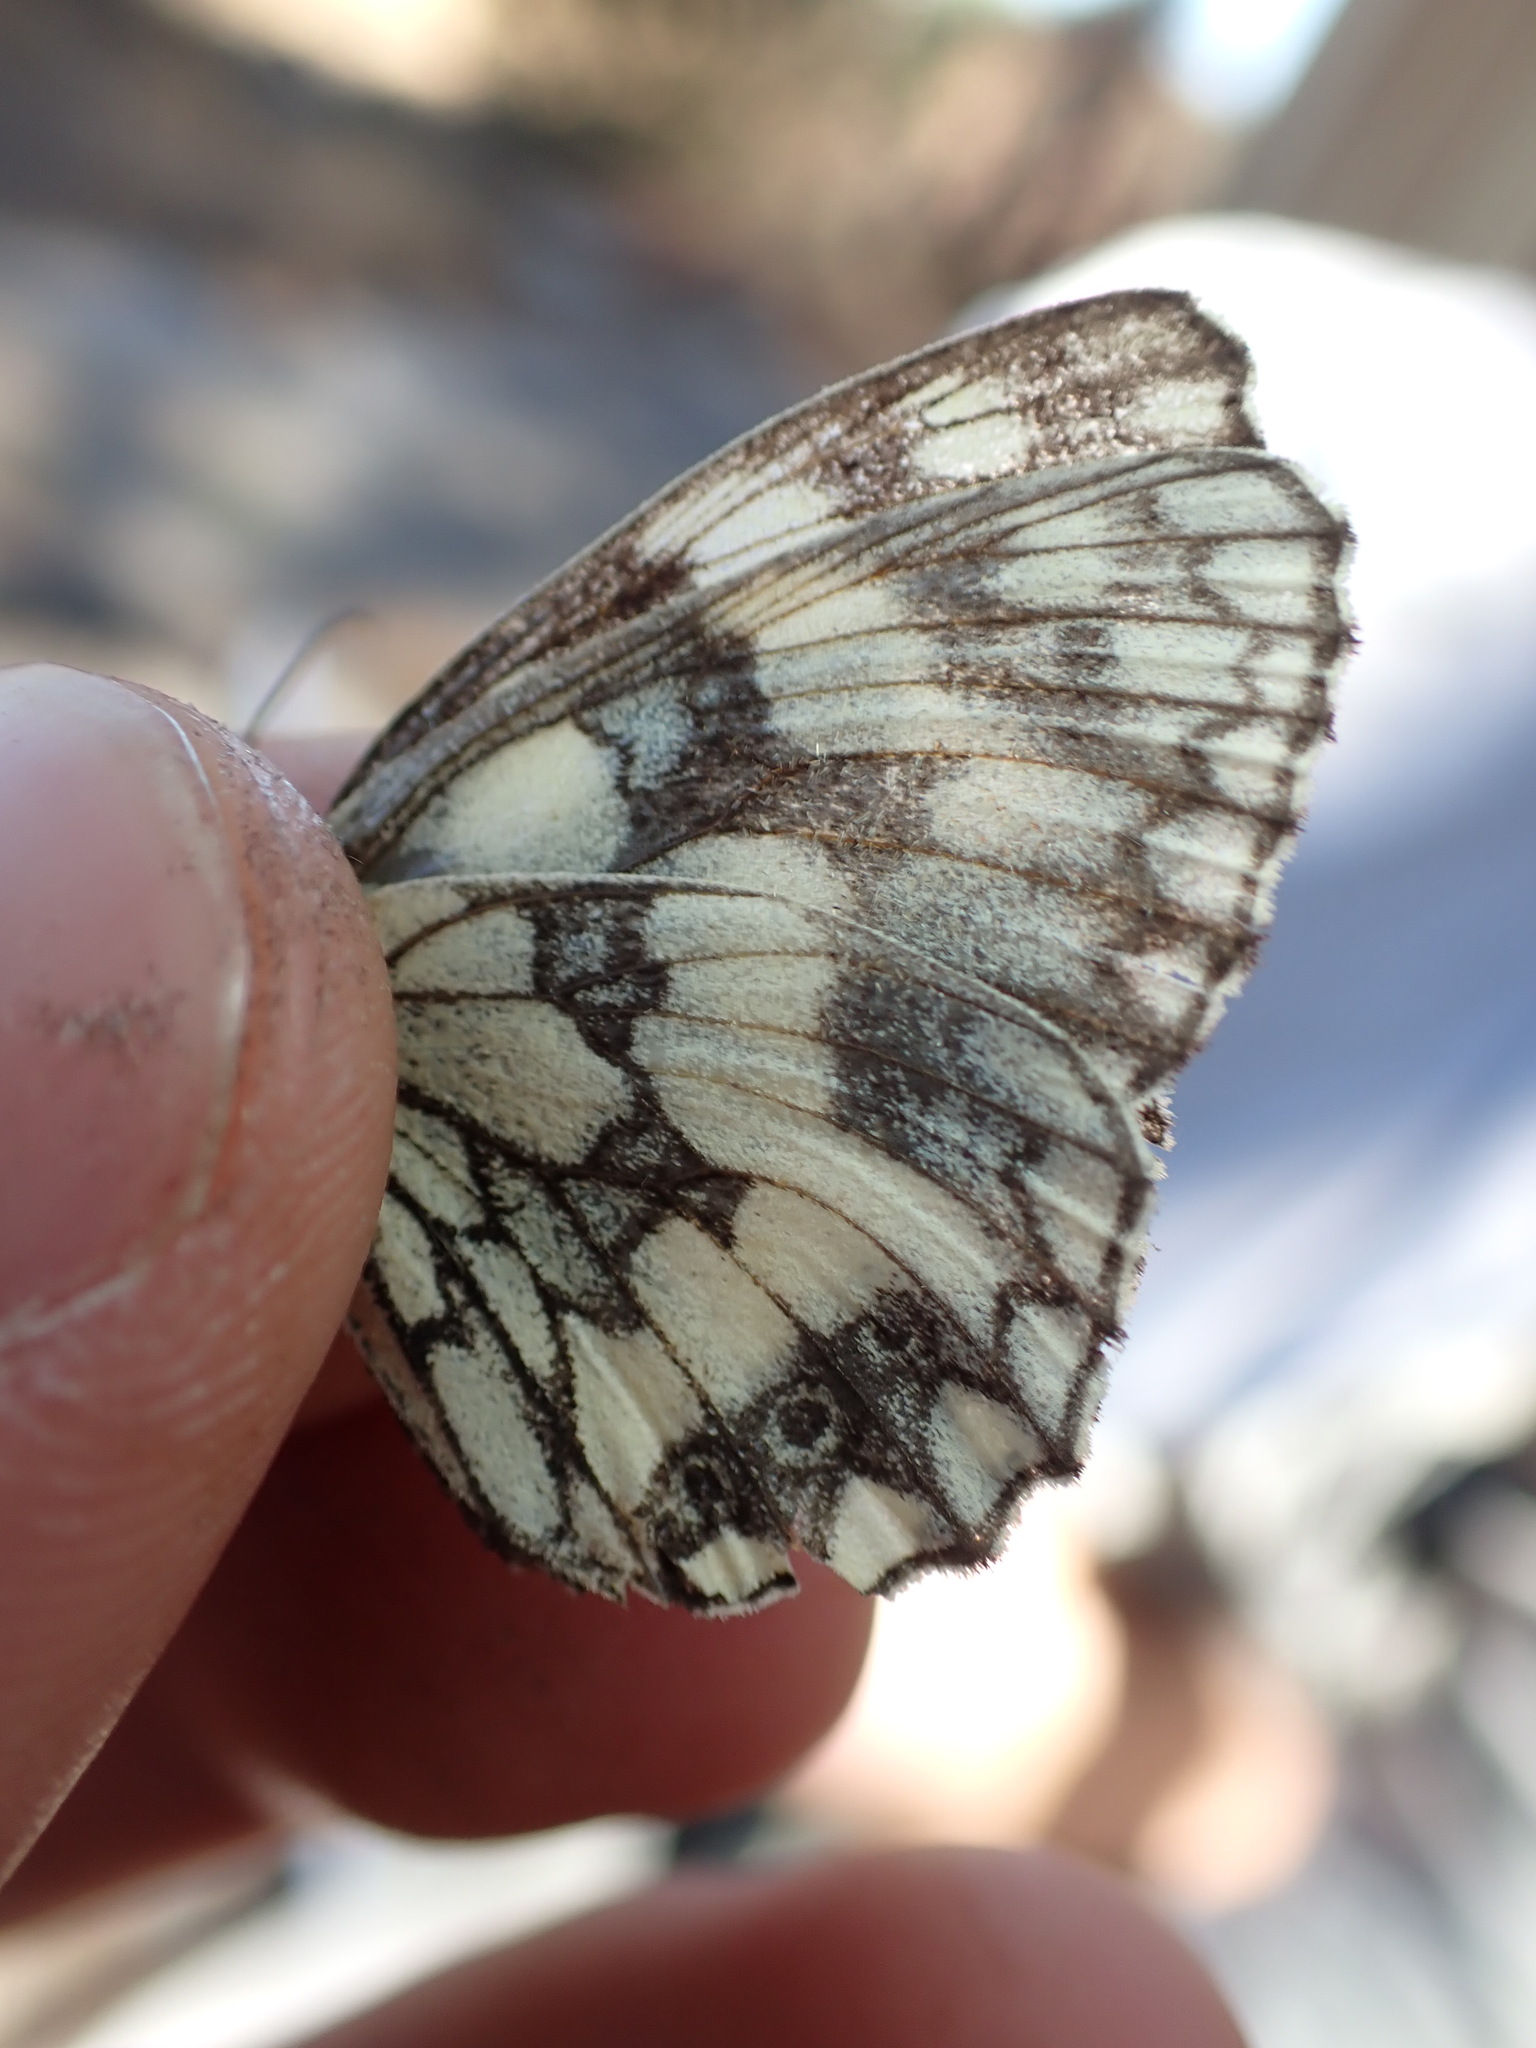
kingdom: Animalia
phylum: Arthropoda
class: Insecta
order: Lepidoptera
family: Nymphalidae
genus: Melanargia
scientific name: Melanargia galathea
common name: Marbled white
